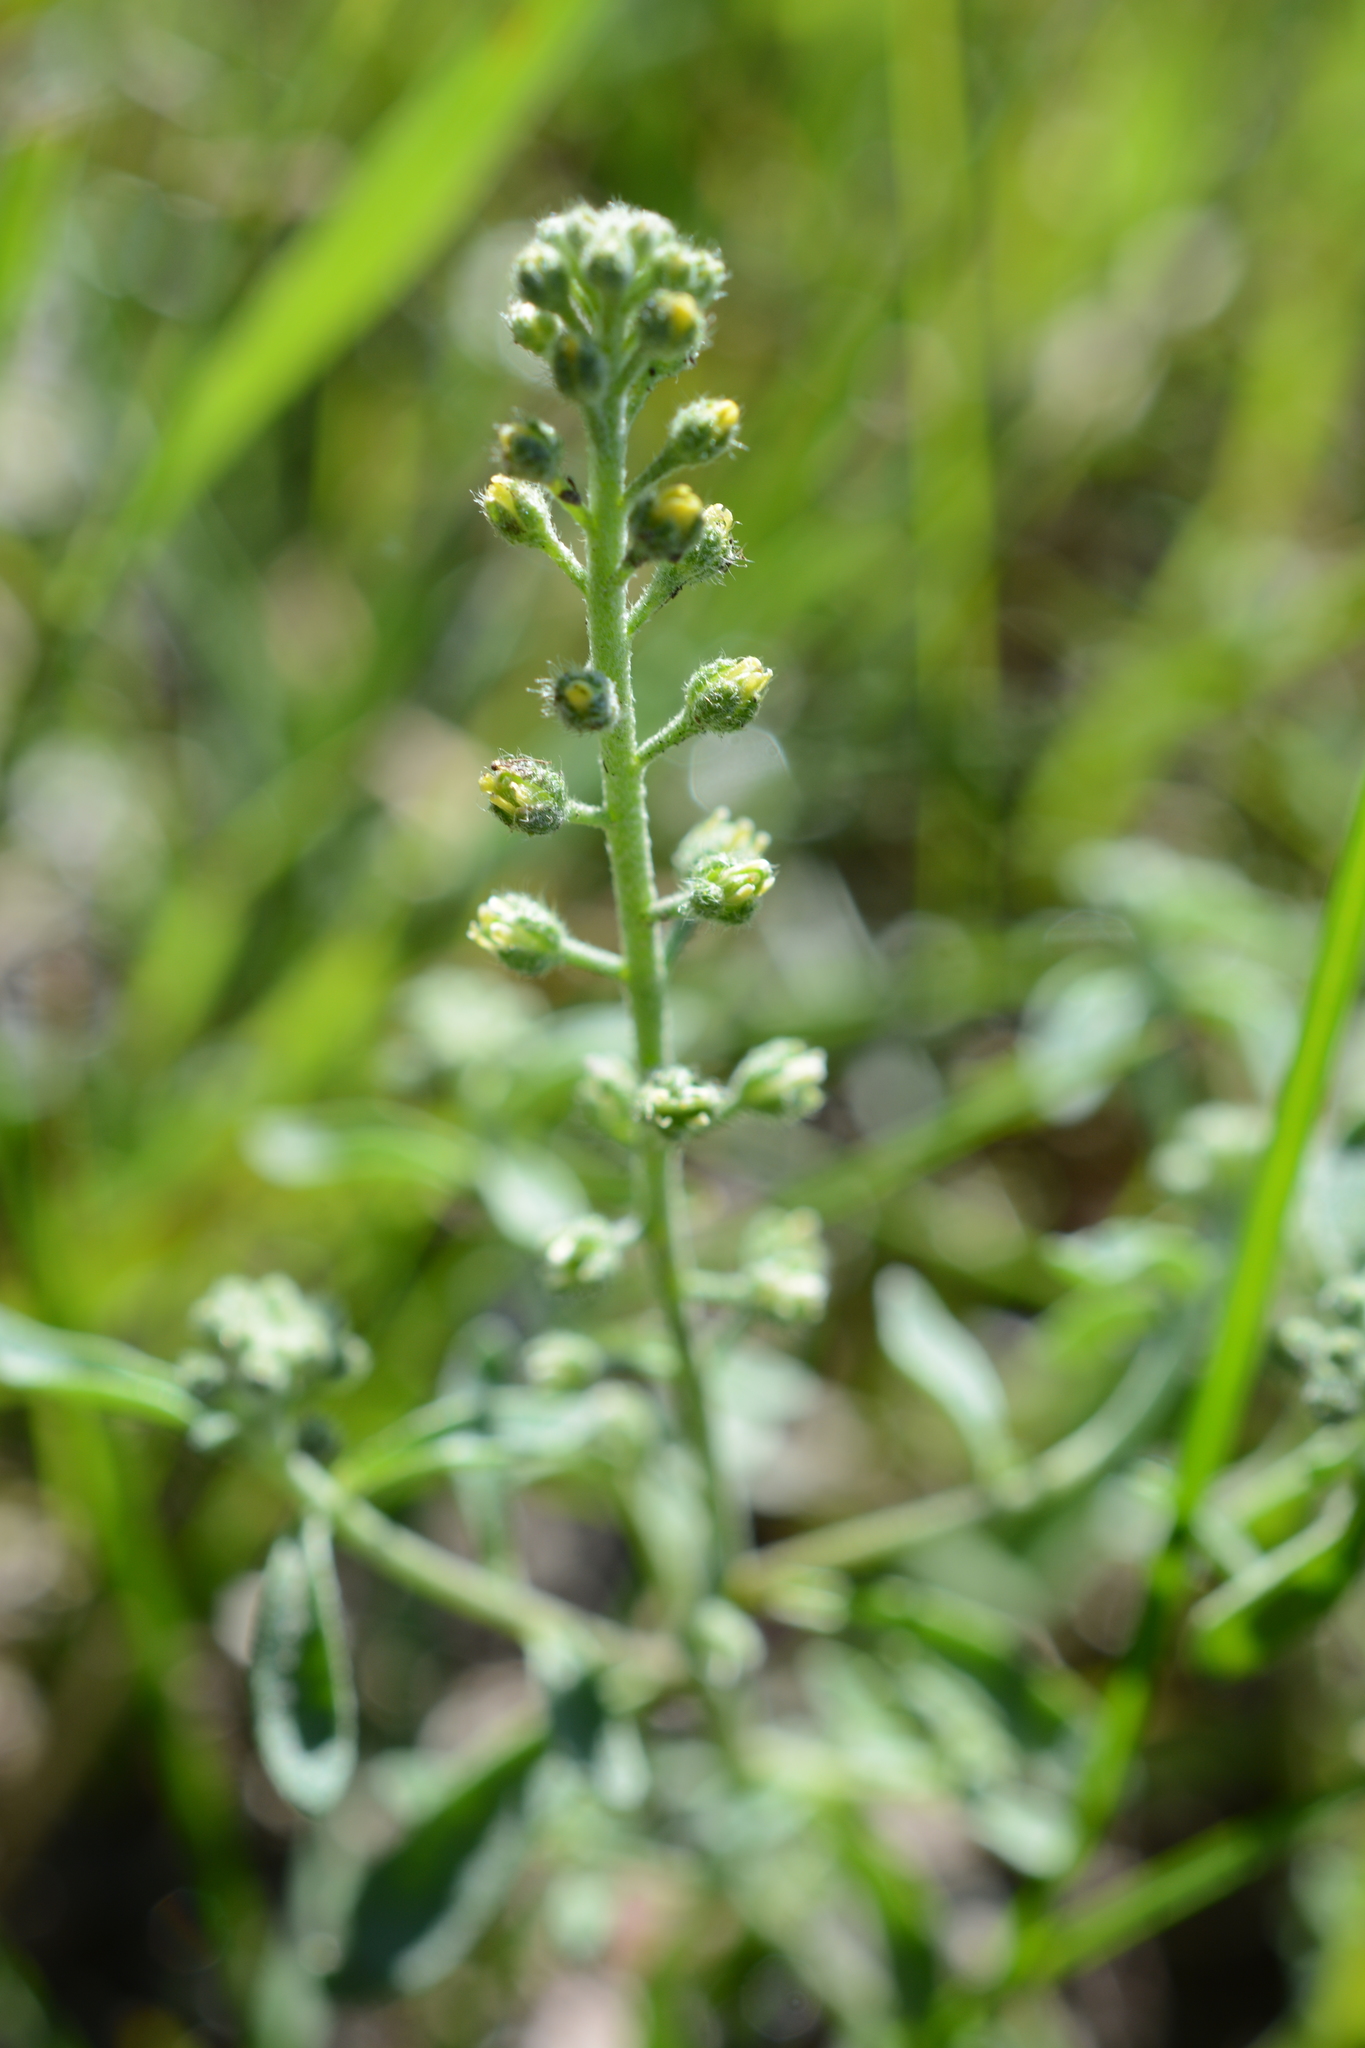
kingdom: Plantae
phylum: Tracheophyta
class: Magnoliopsida
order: Brassicales
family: Brassicaceae
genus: Alyssum
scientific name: Alyssum alyssoides
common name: Small alison
